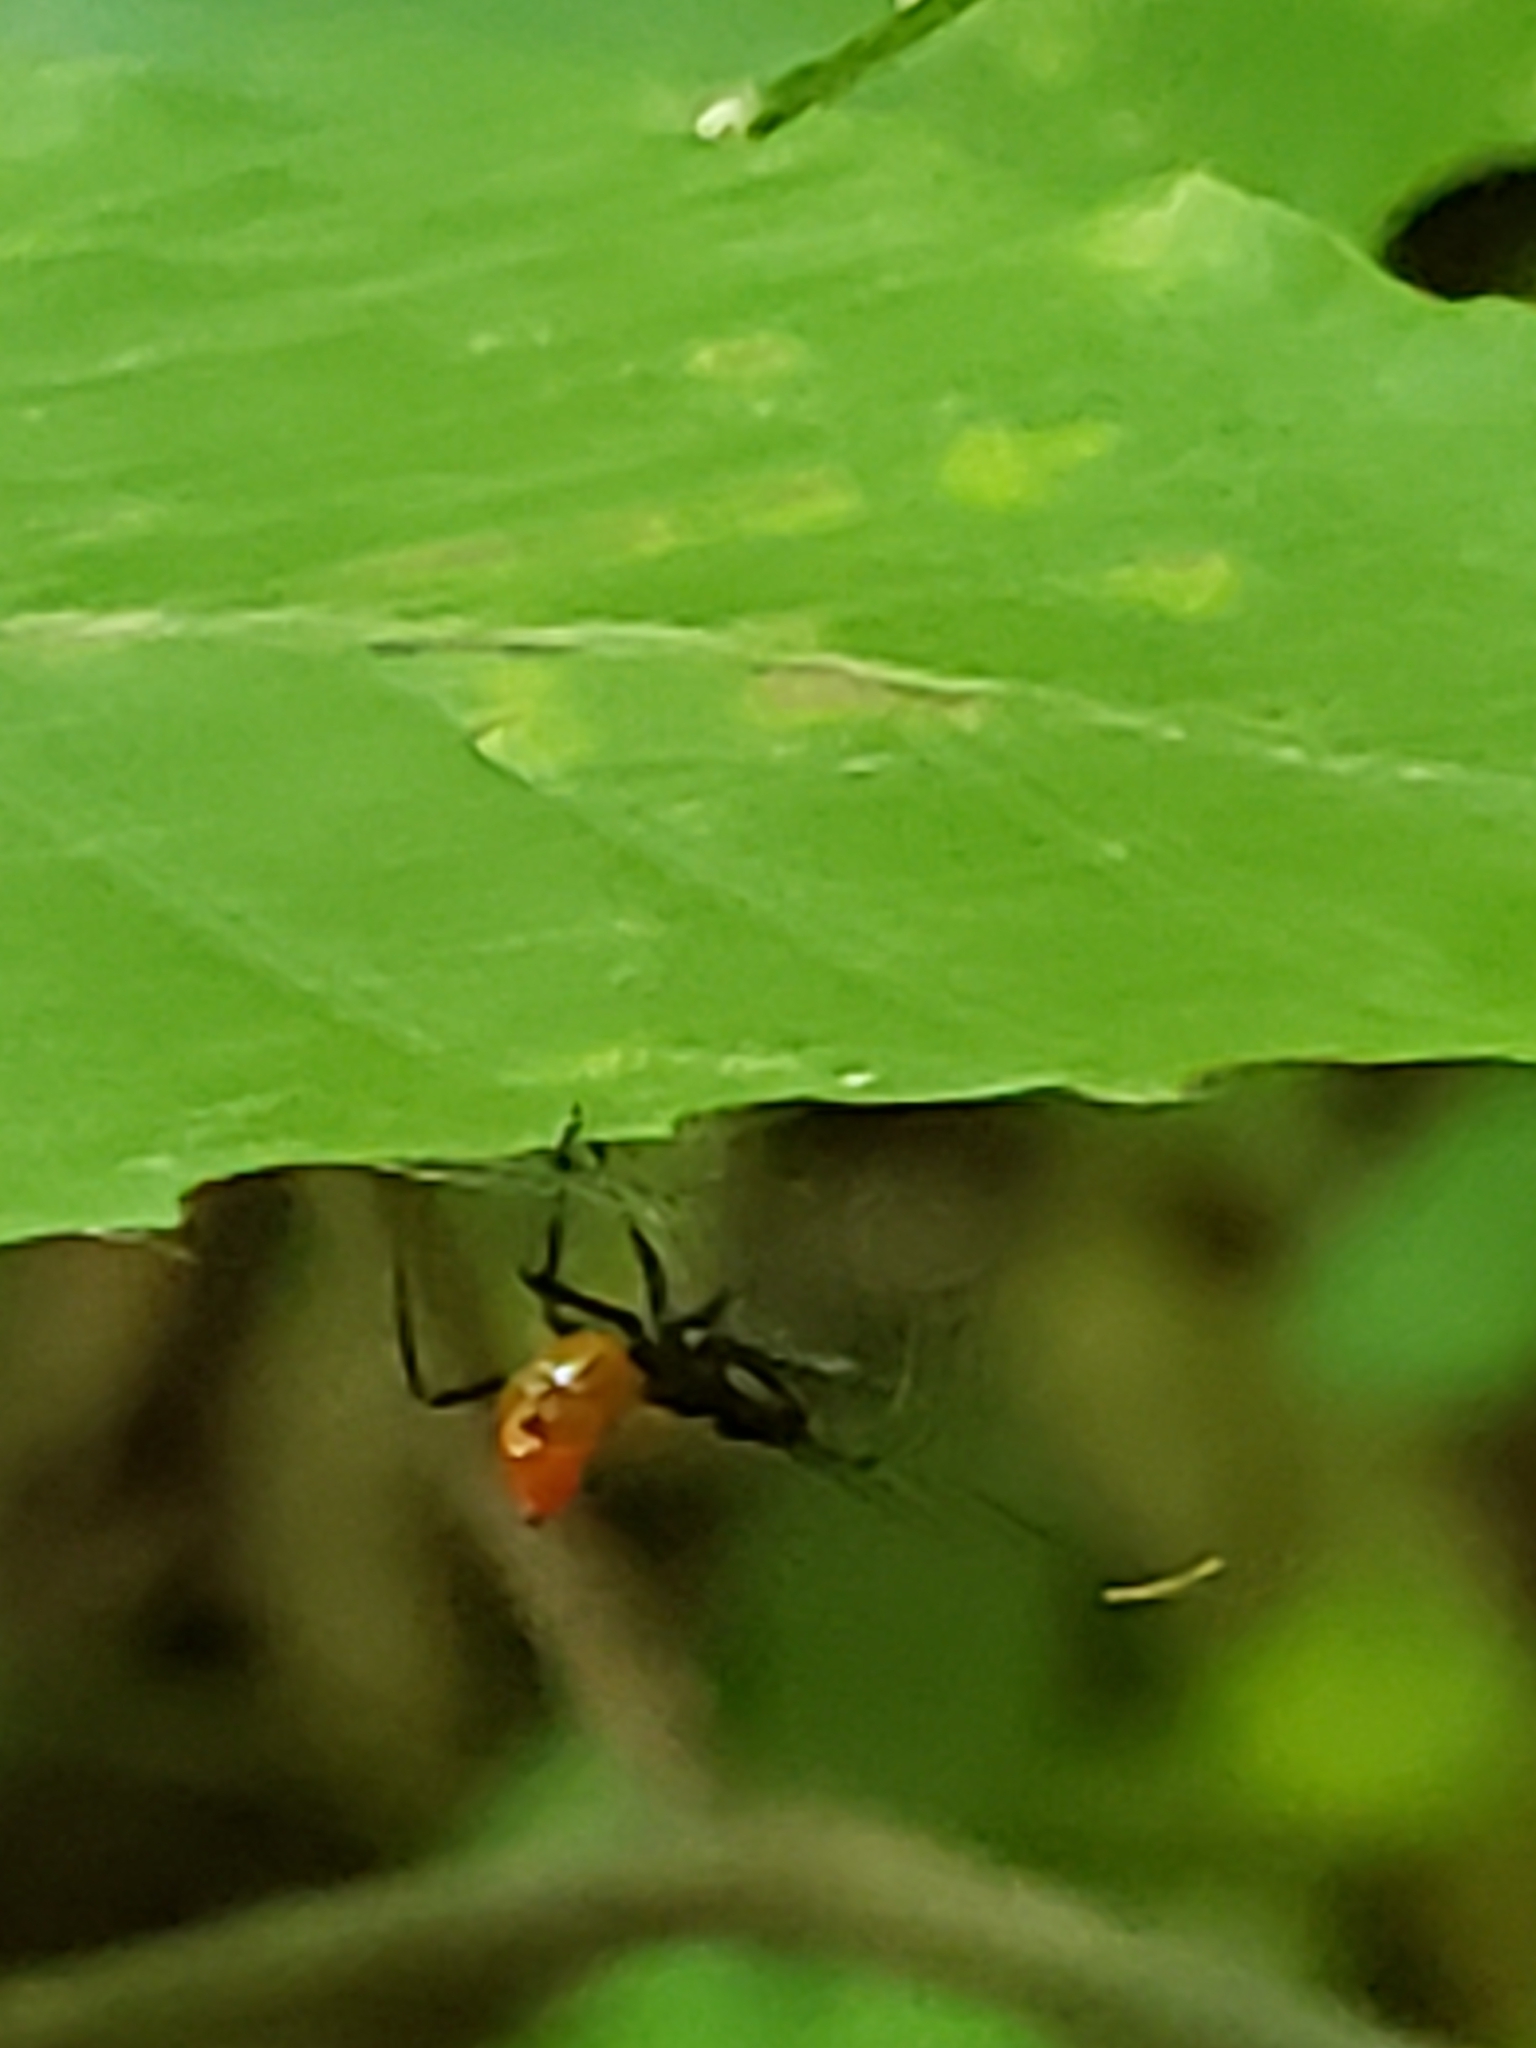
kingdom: Animalia
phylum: Arthropoda
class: Insecta
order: Hemiptera
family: Reduviidae
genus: Arilus
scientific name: Arilus cristatus
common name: North american wheel bug
